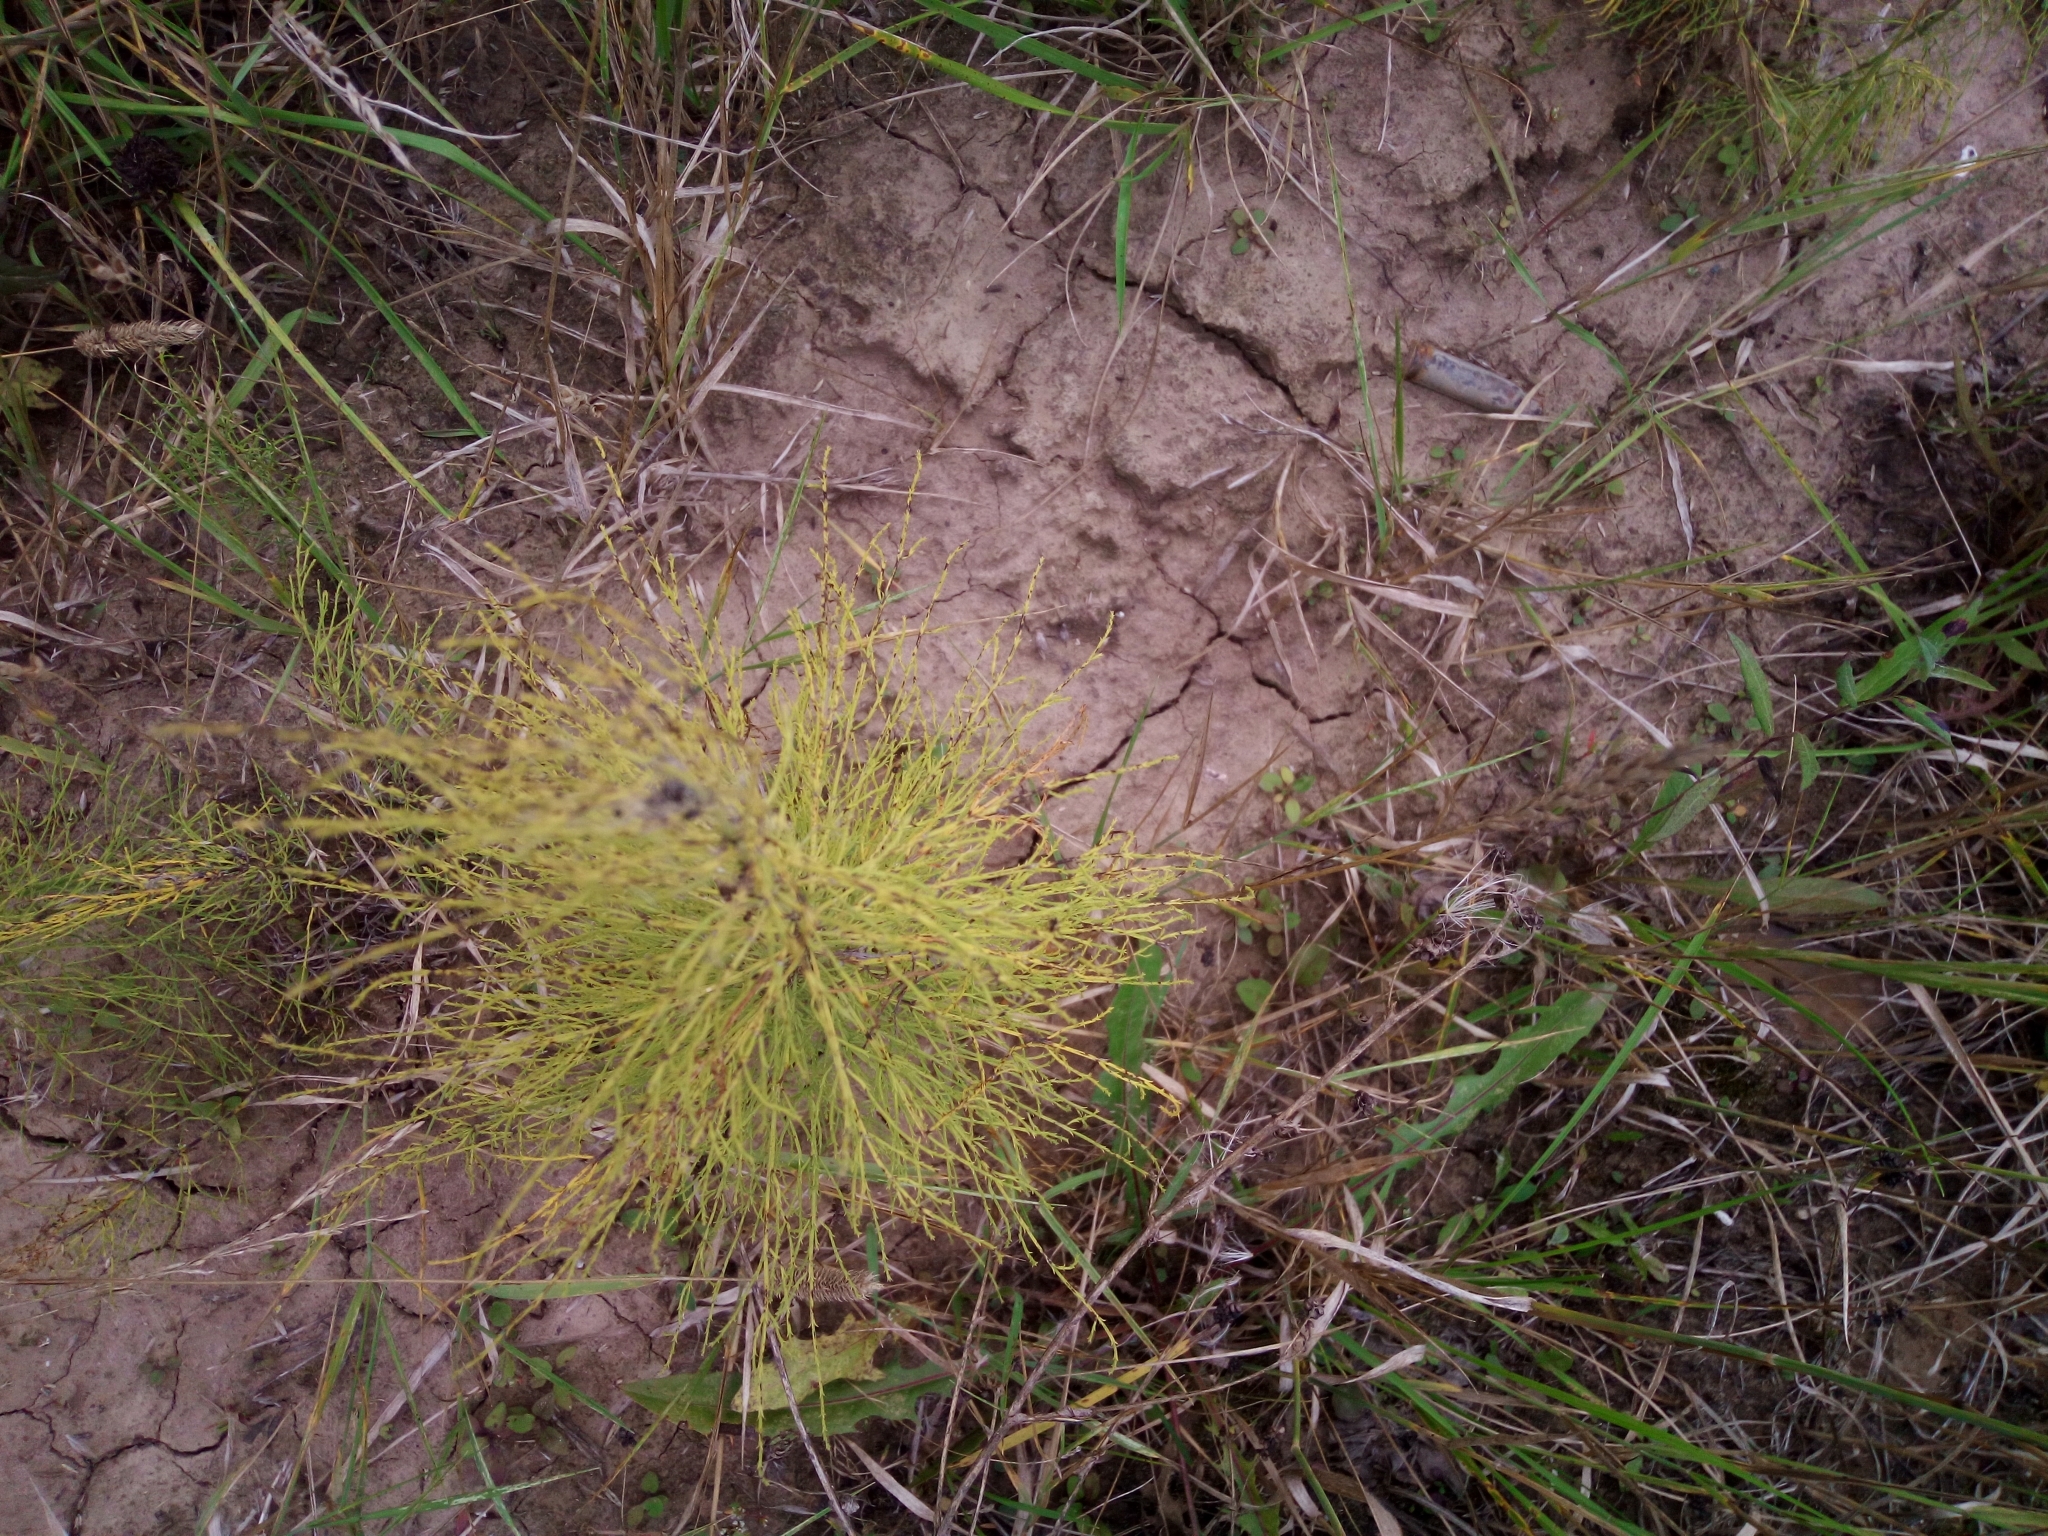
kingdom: Plantae
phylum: Tracheophyta
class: Polypodiopsida
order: Equisetales
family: Equisetaceae
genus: Equisetum
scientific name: Equisetum sylvaticum
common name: Wood horsetail
